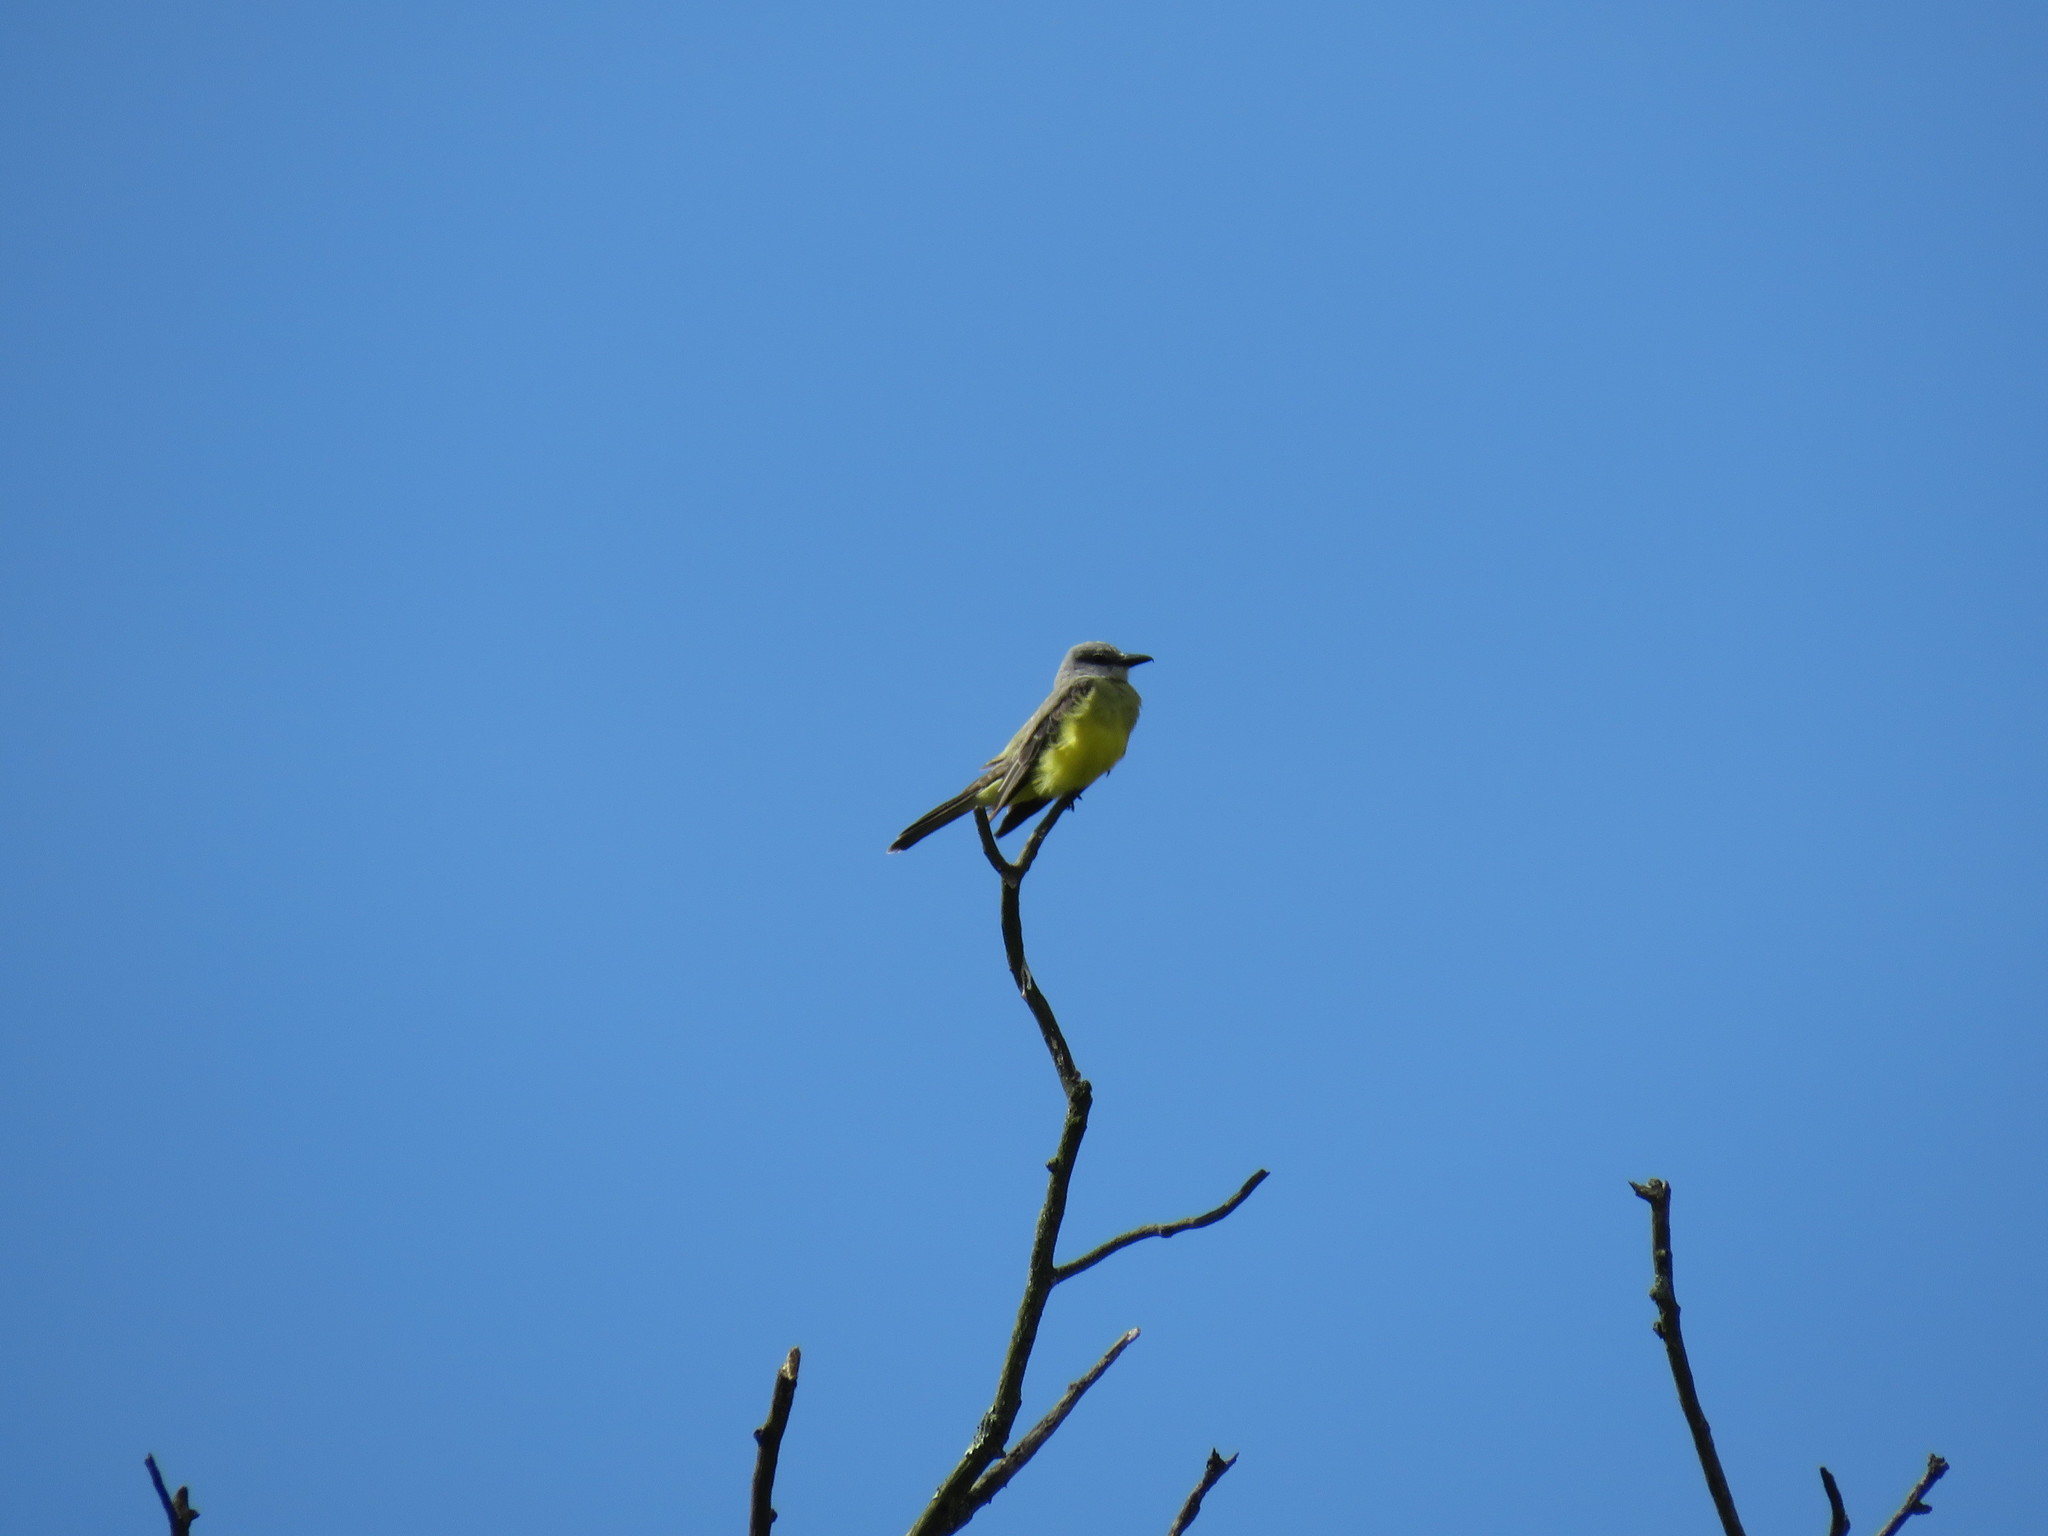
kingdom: Animalia
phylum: Chordata
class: Aves
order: Passeriformes
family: Tyrannidae
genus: Tyrannus
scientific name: Tyrannus melancholicus
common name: Tropical kingbird
